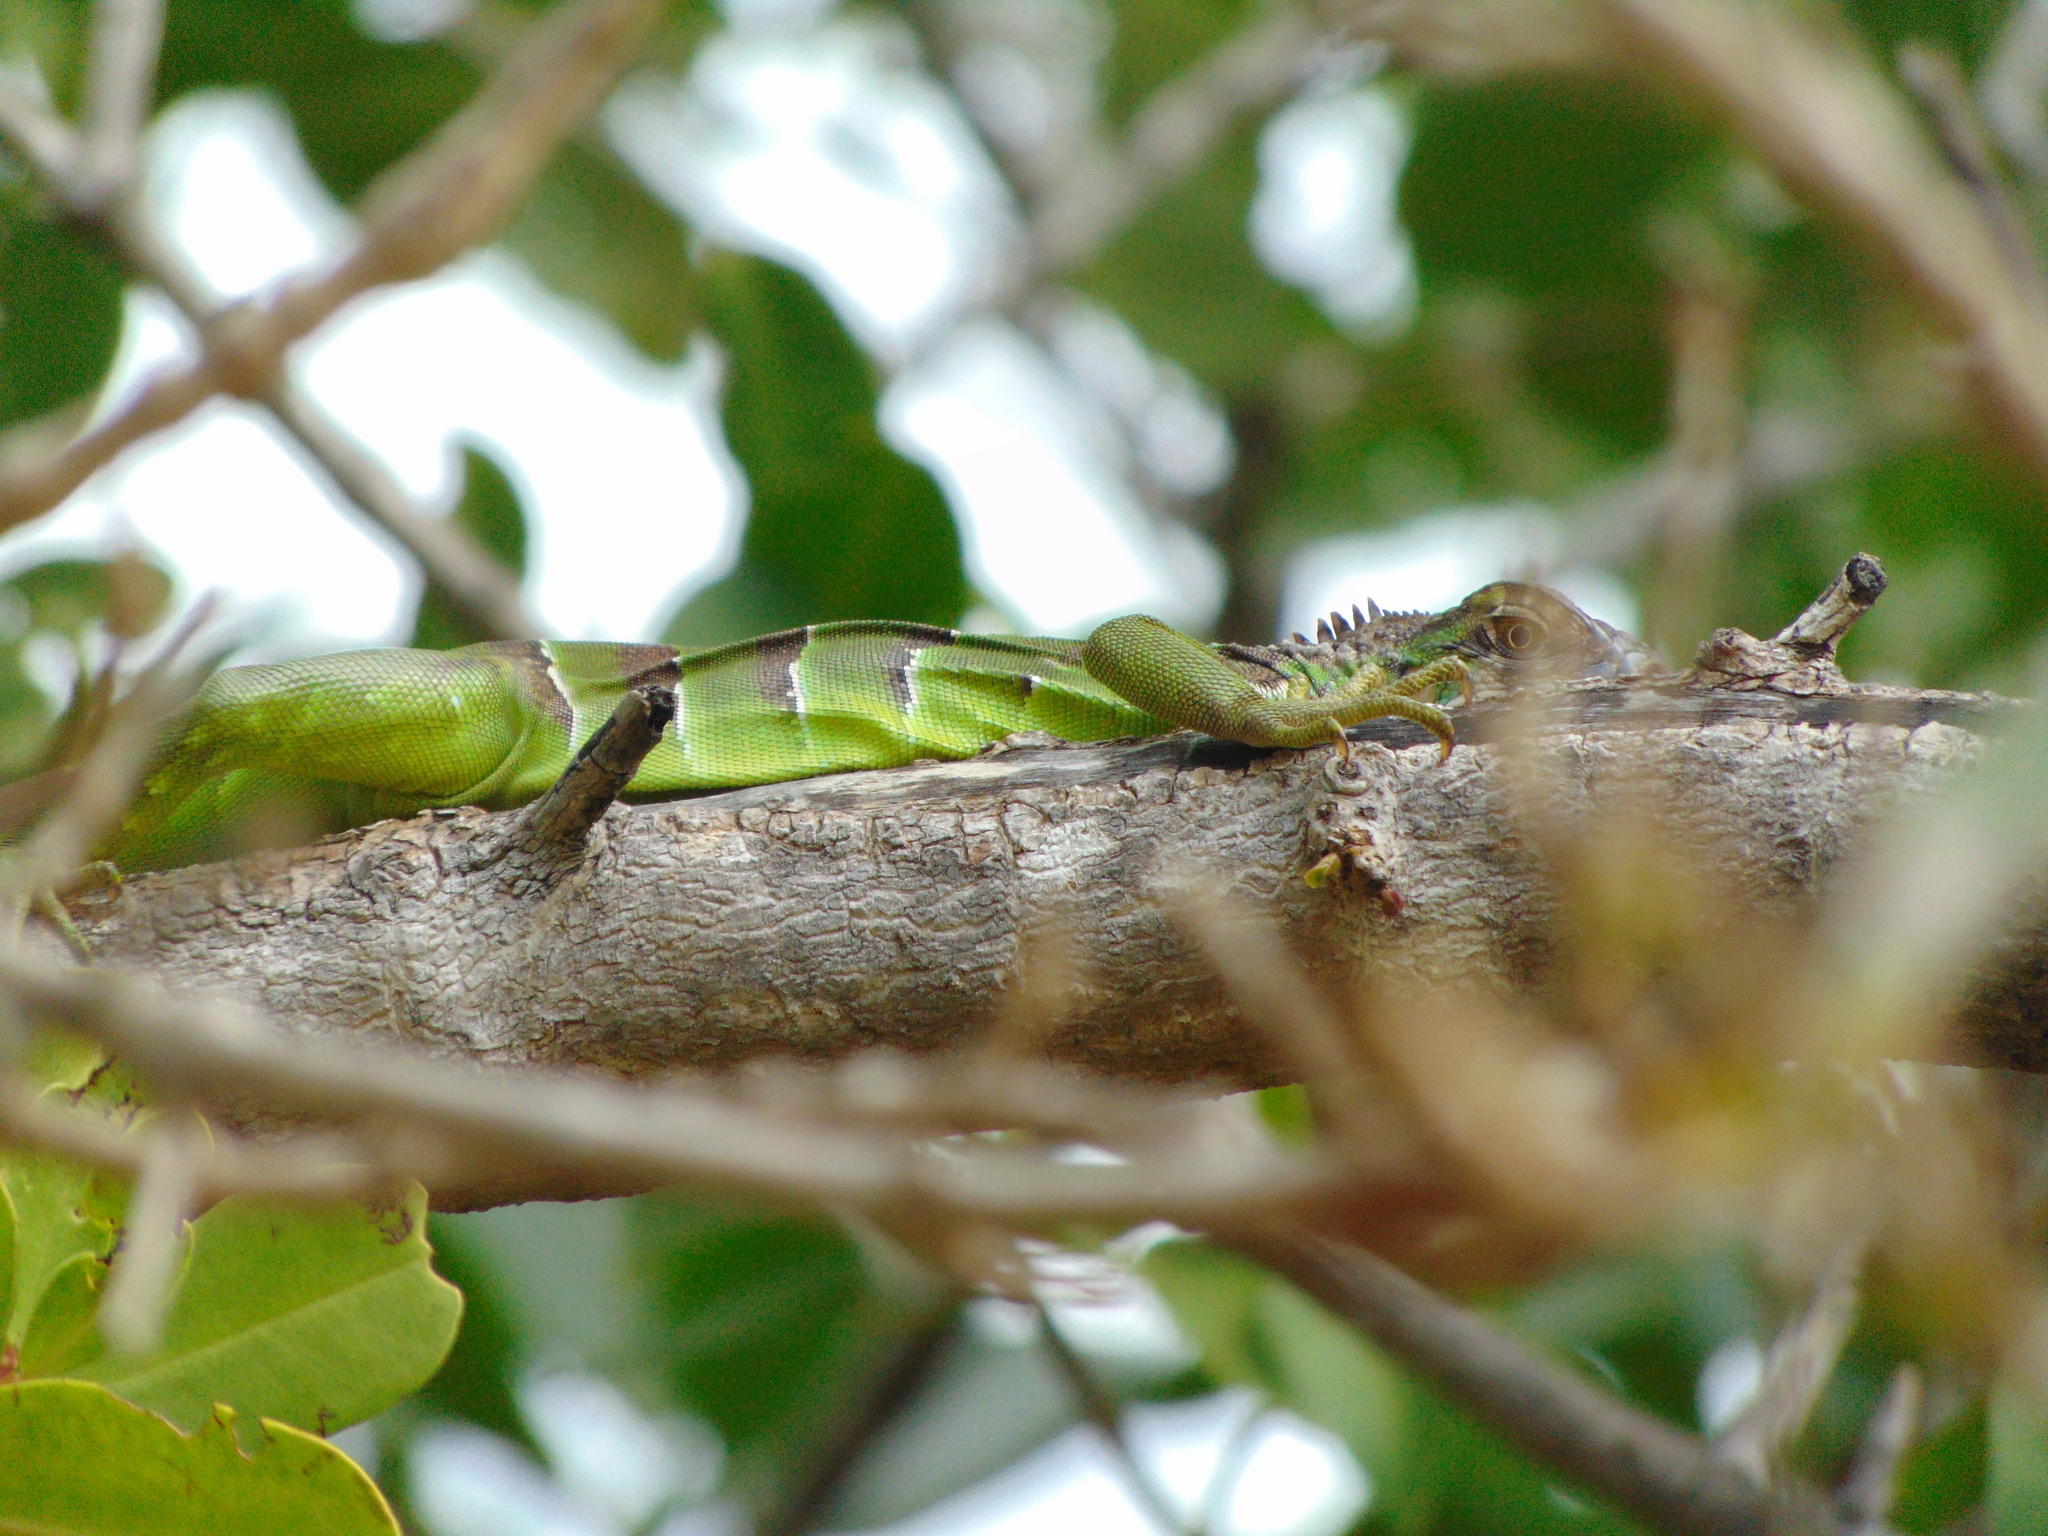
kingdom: Animalia
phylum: Chordata
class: Squamata
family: Iguanidae
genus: Iguana
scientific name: Iguana iguana
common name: Green iguana
